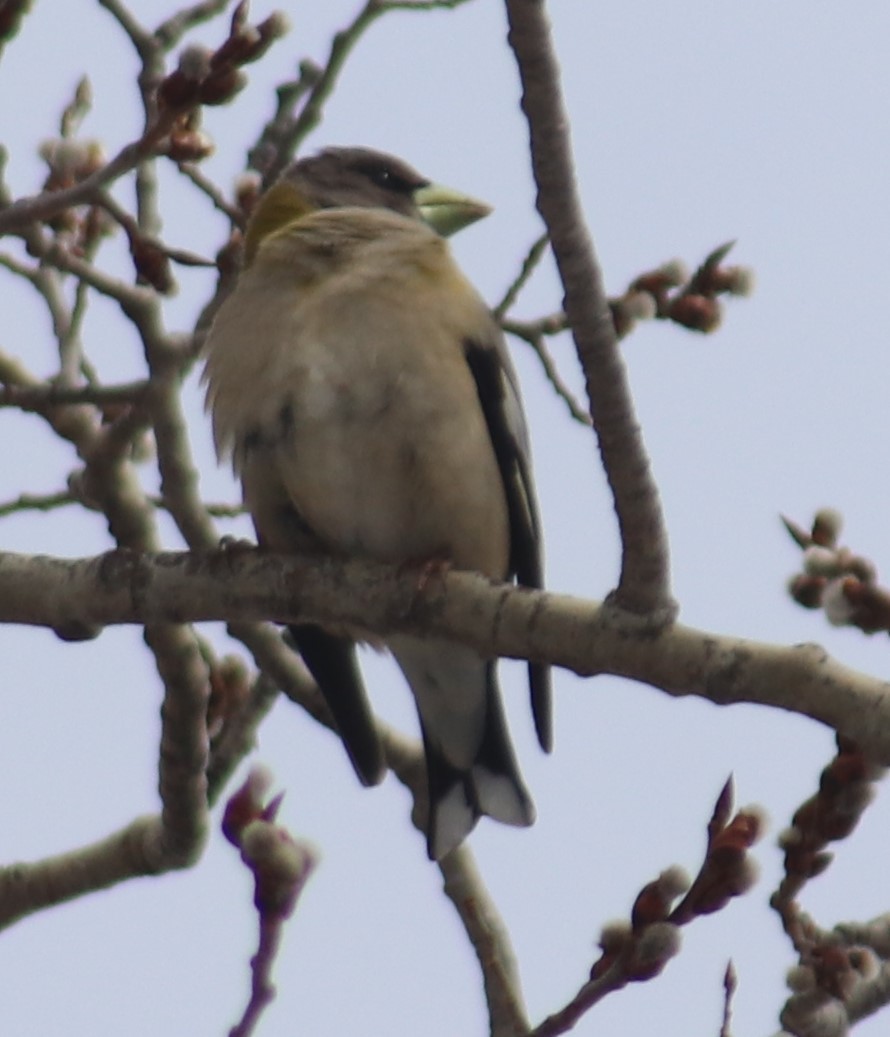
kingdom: Animalia
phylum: Chordata
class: Aves
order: Passeriformes
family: Fringillidae
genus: Hesperiphona
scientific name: Hesperiphona vespertina
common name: Evening grosbeak
